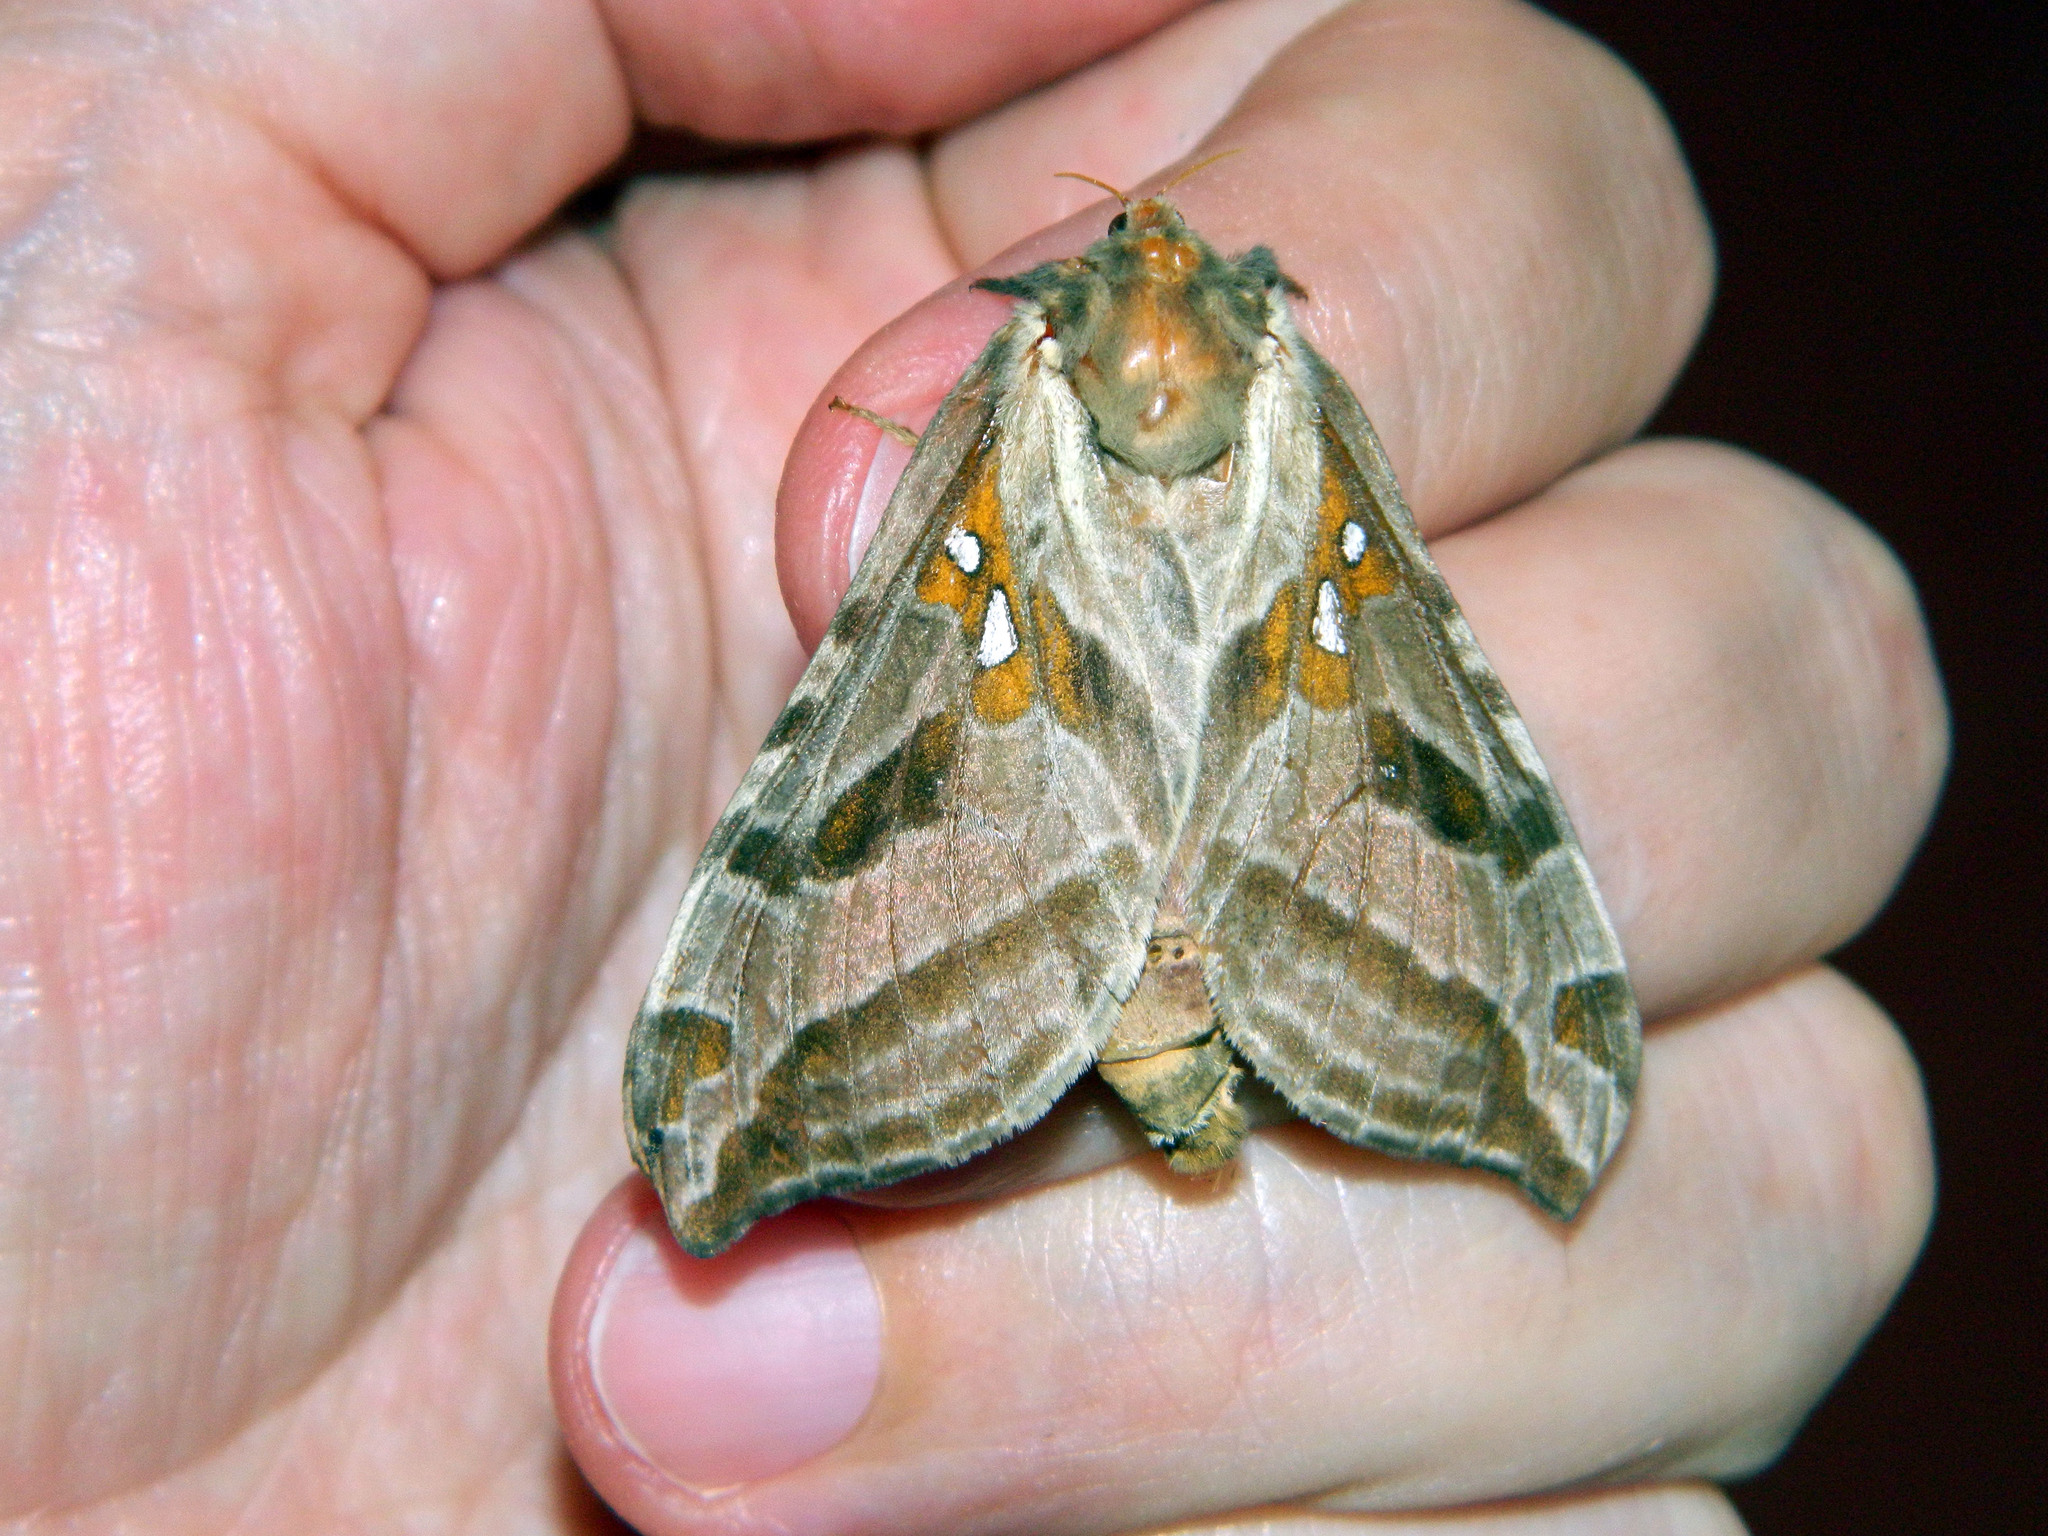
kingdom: Animalia
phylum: Arthropoda
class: Insecta
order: Lepidoptera
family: Hepialidae
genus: Sthenopis
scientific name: Sthenopis argenteomaculatus
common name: Silver-spotted ghost moth
